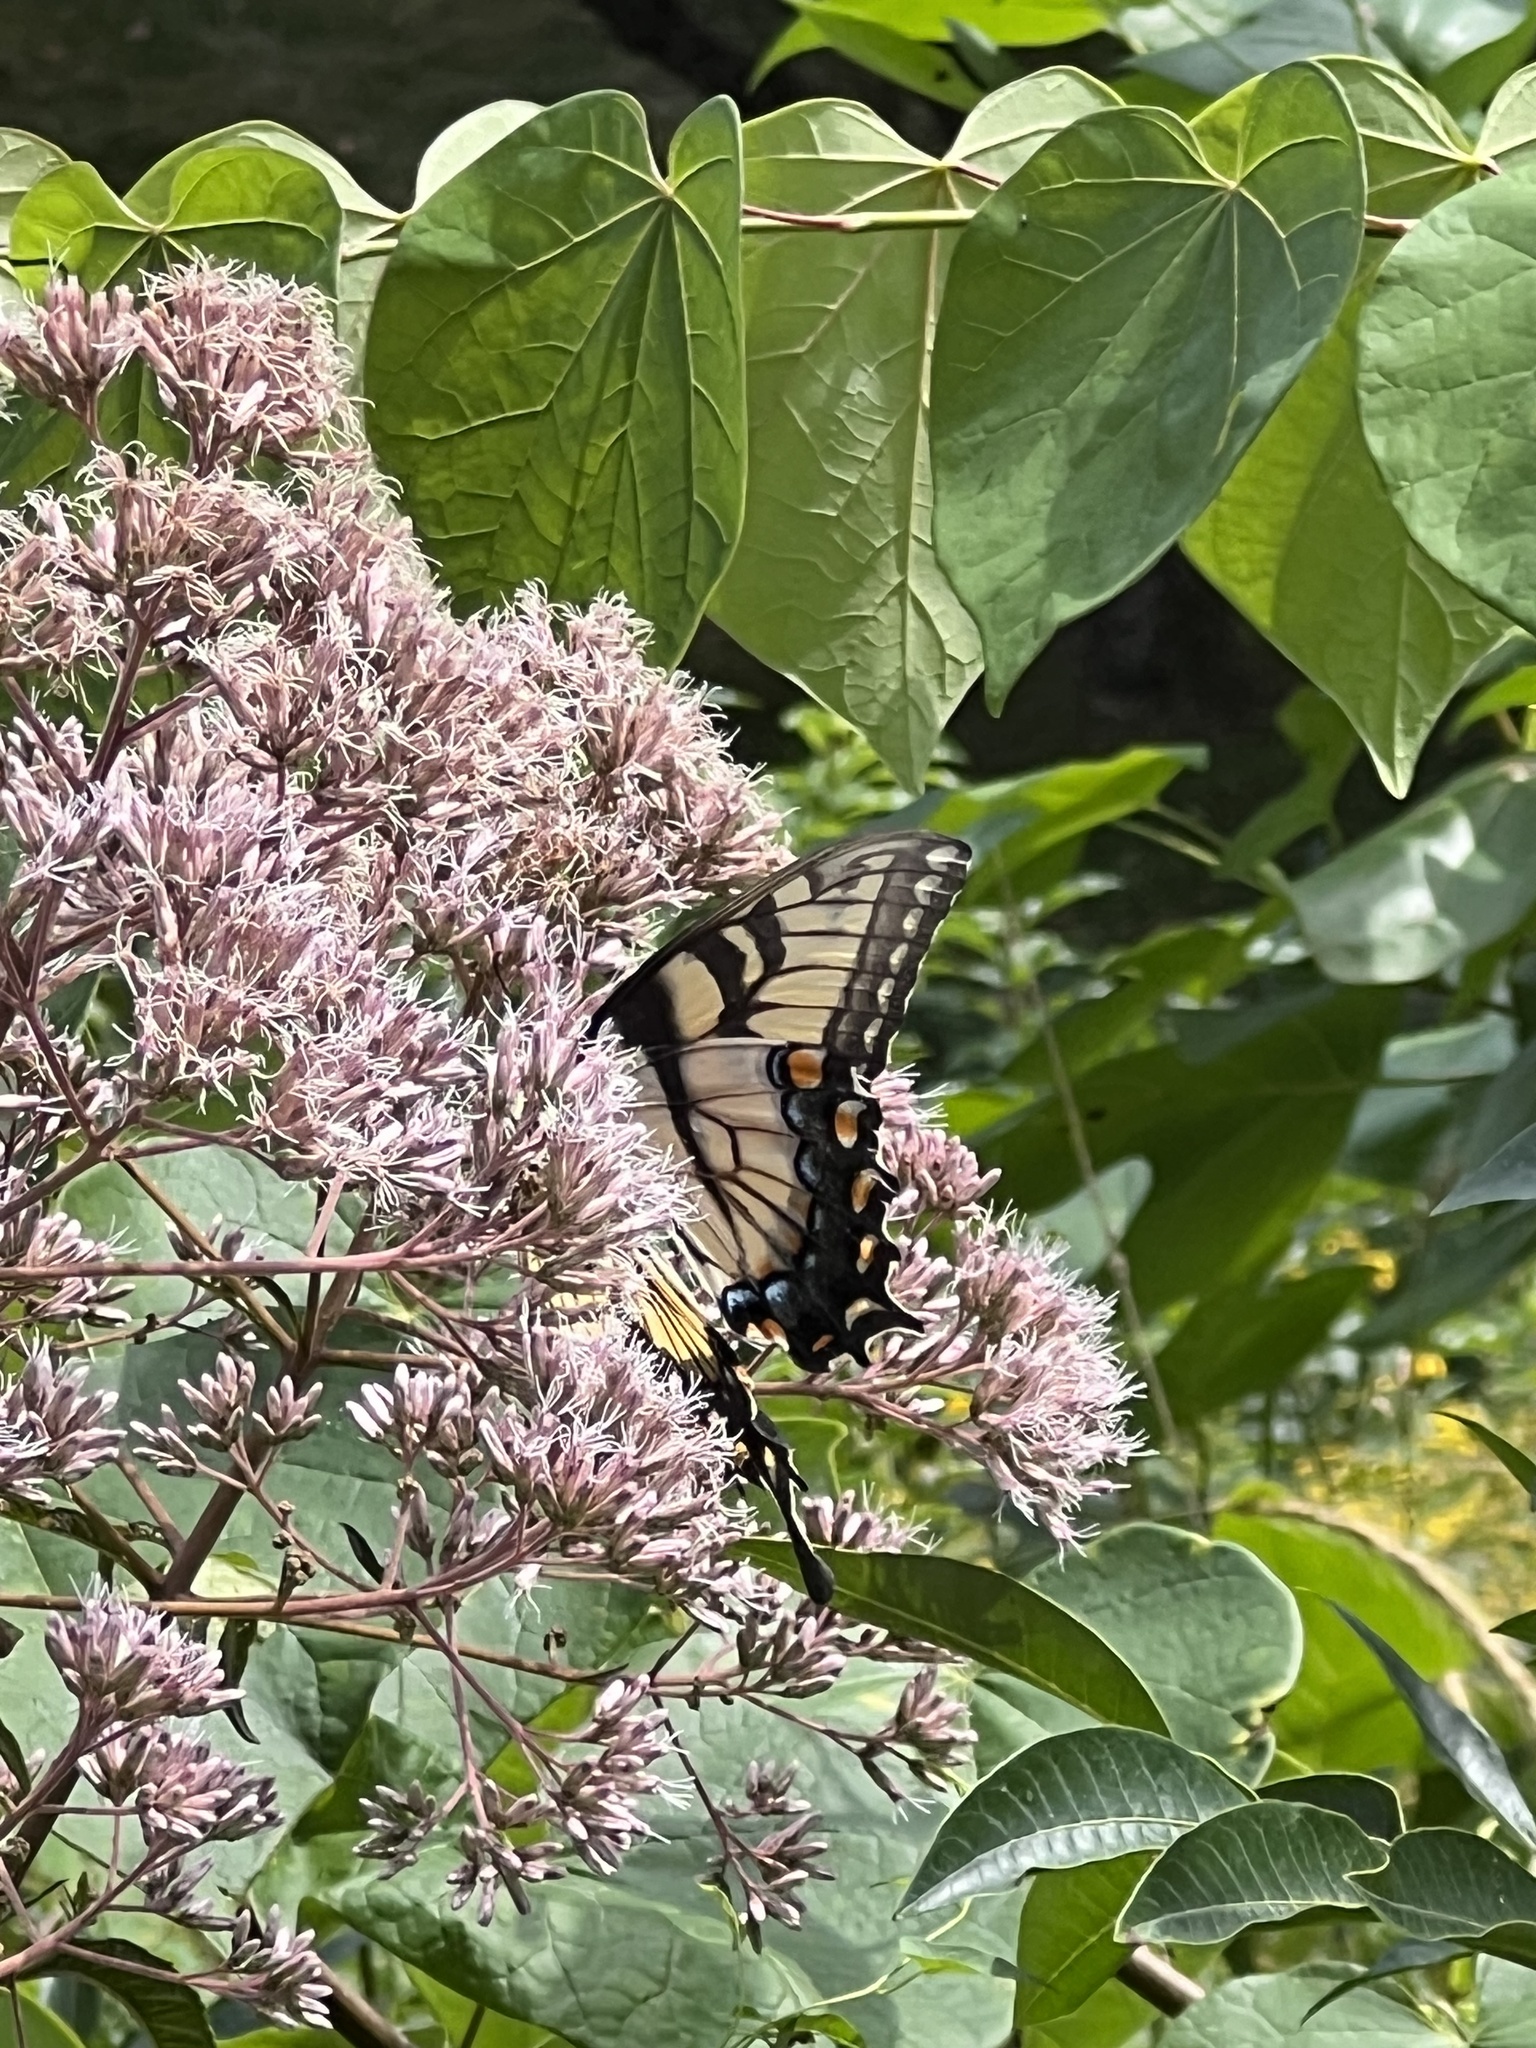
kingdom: Animalia
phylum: Arthropoda
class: Insecta
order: Lepidoptera
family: Papilionidae
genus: Papilio
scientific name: Papilio glaucus
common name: Tiger swallowtail
